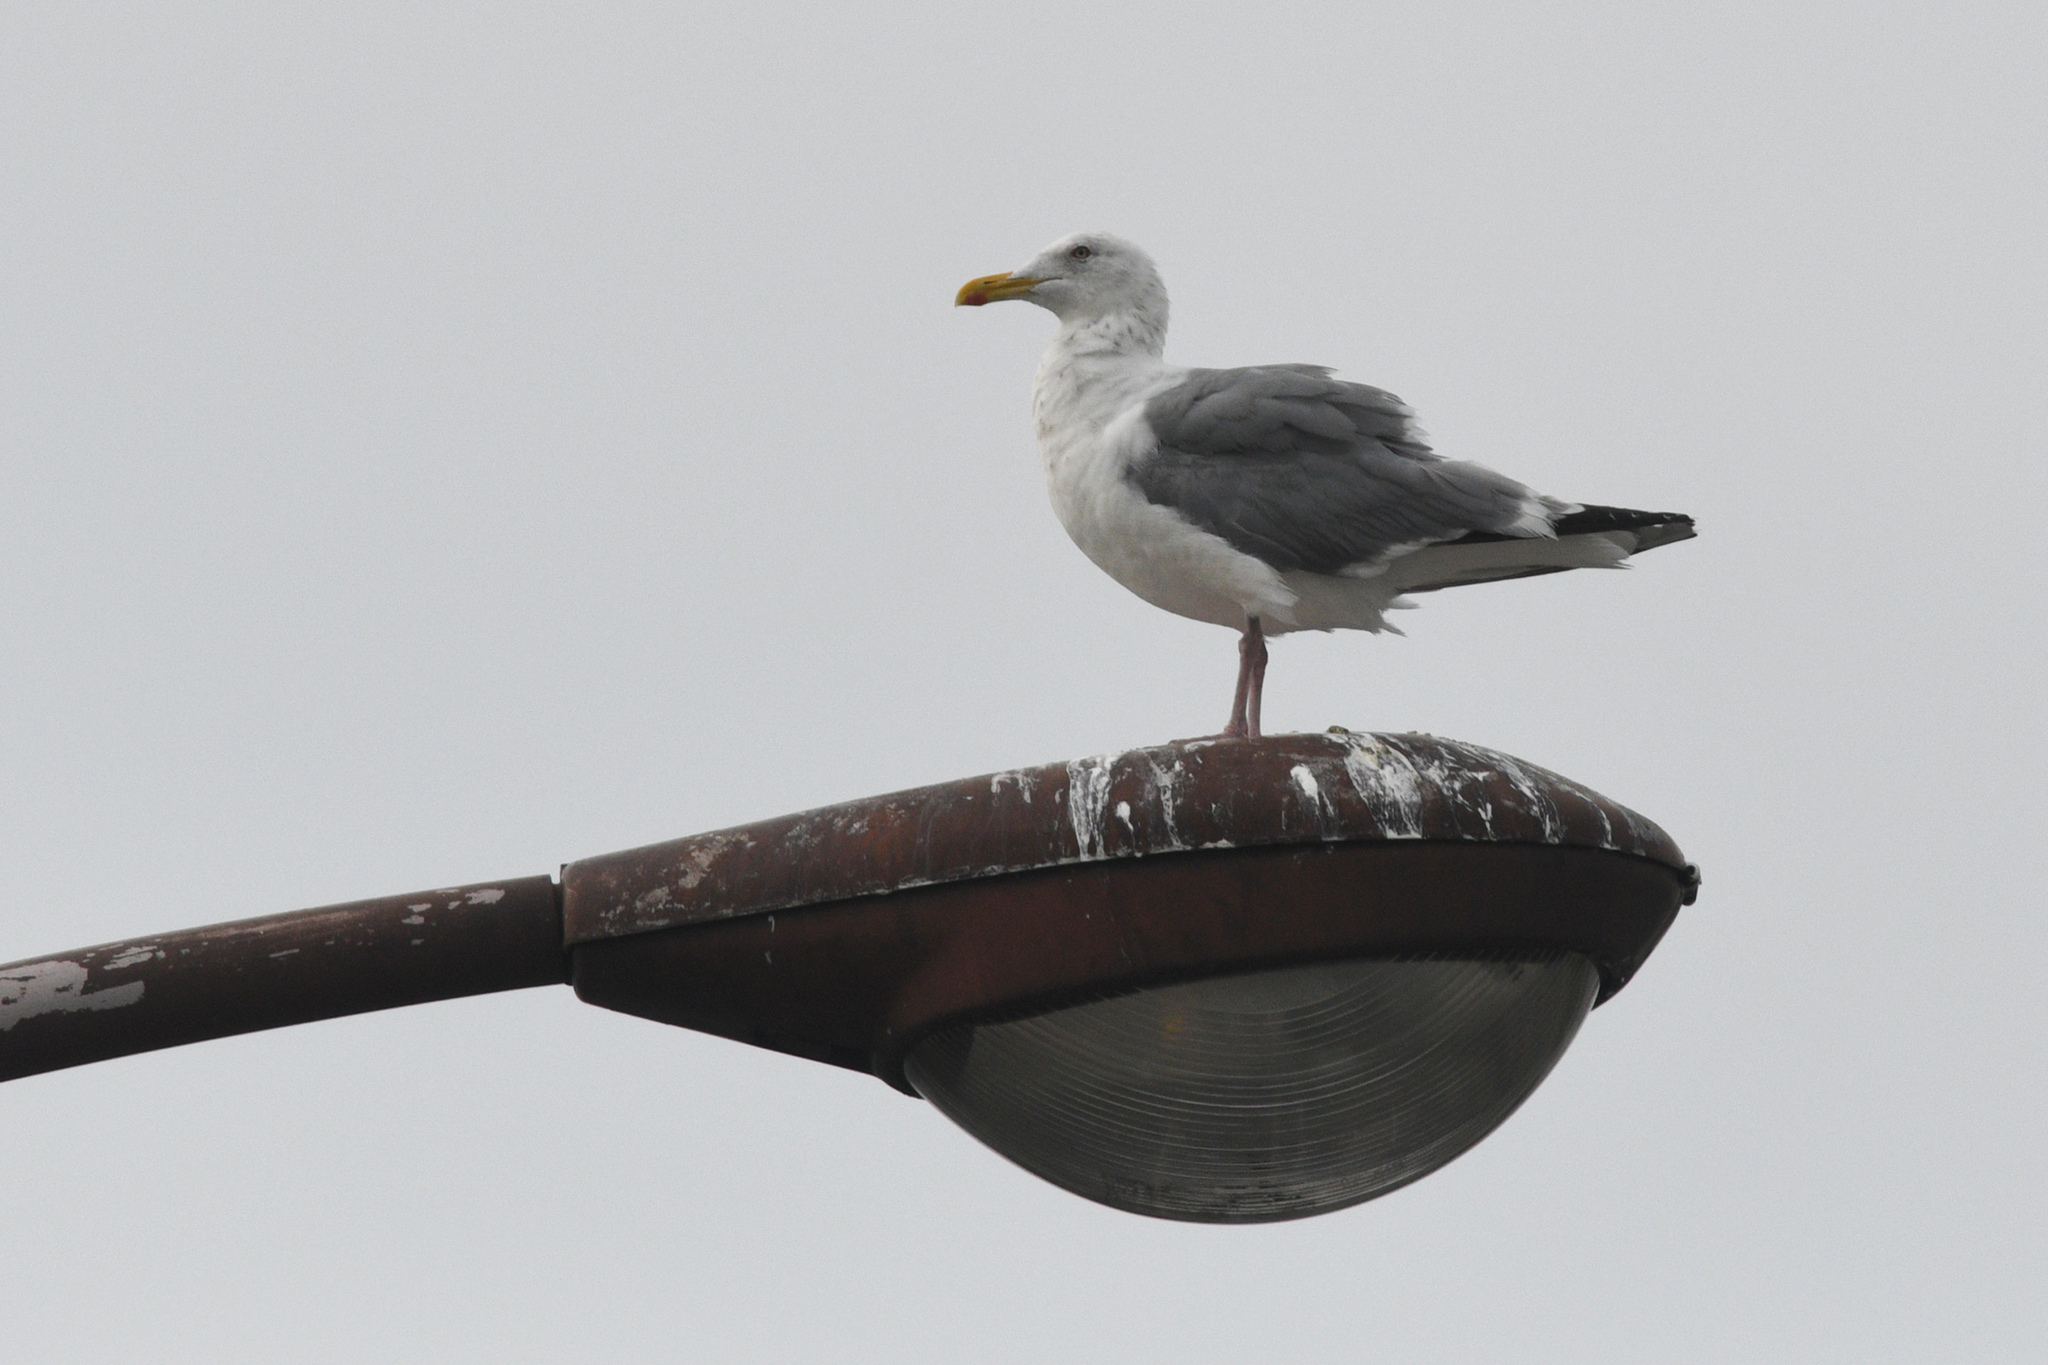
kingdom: Animalia
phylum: Chordata
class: Aves
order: Charadriiformes
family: Laridae
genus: Larus
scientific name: Larus argentatus
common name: Herring gull
